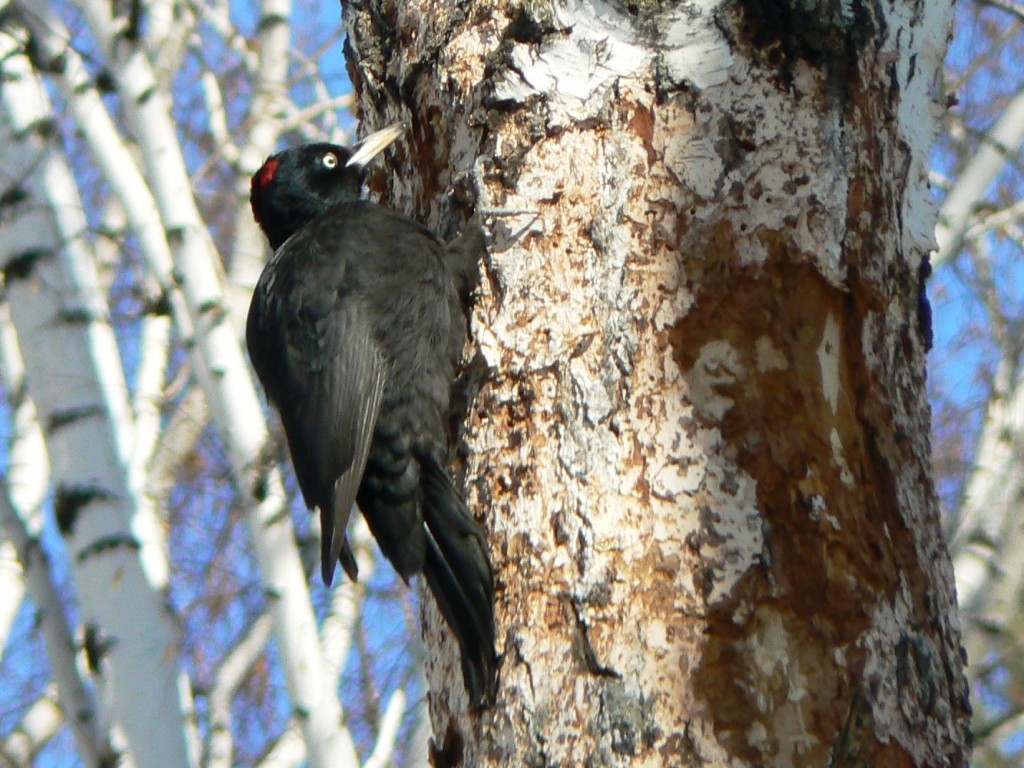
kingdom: Animalia
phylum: Chordata
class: Aves
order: Piciformes
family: Picidae
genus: Dryocopus
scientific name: Dryocopus martius
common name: Black woodpecker
